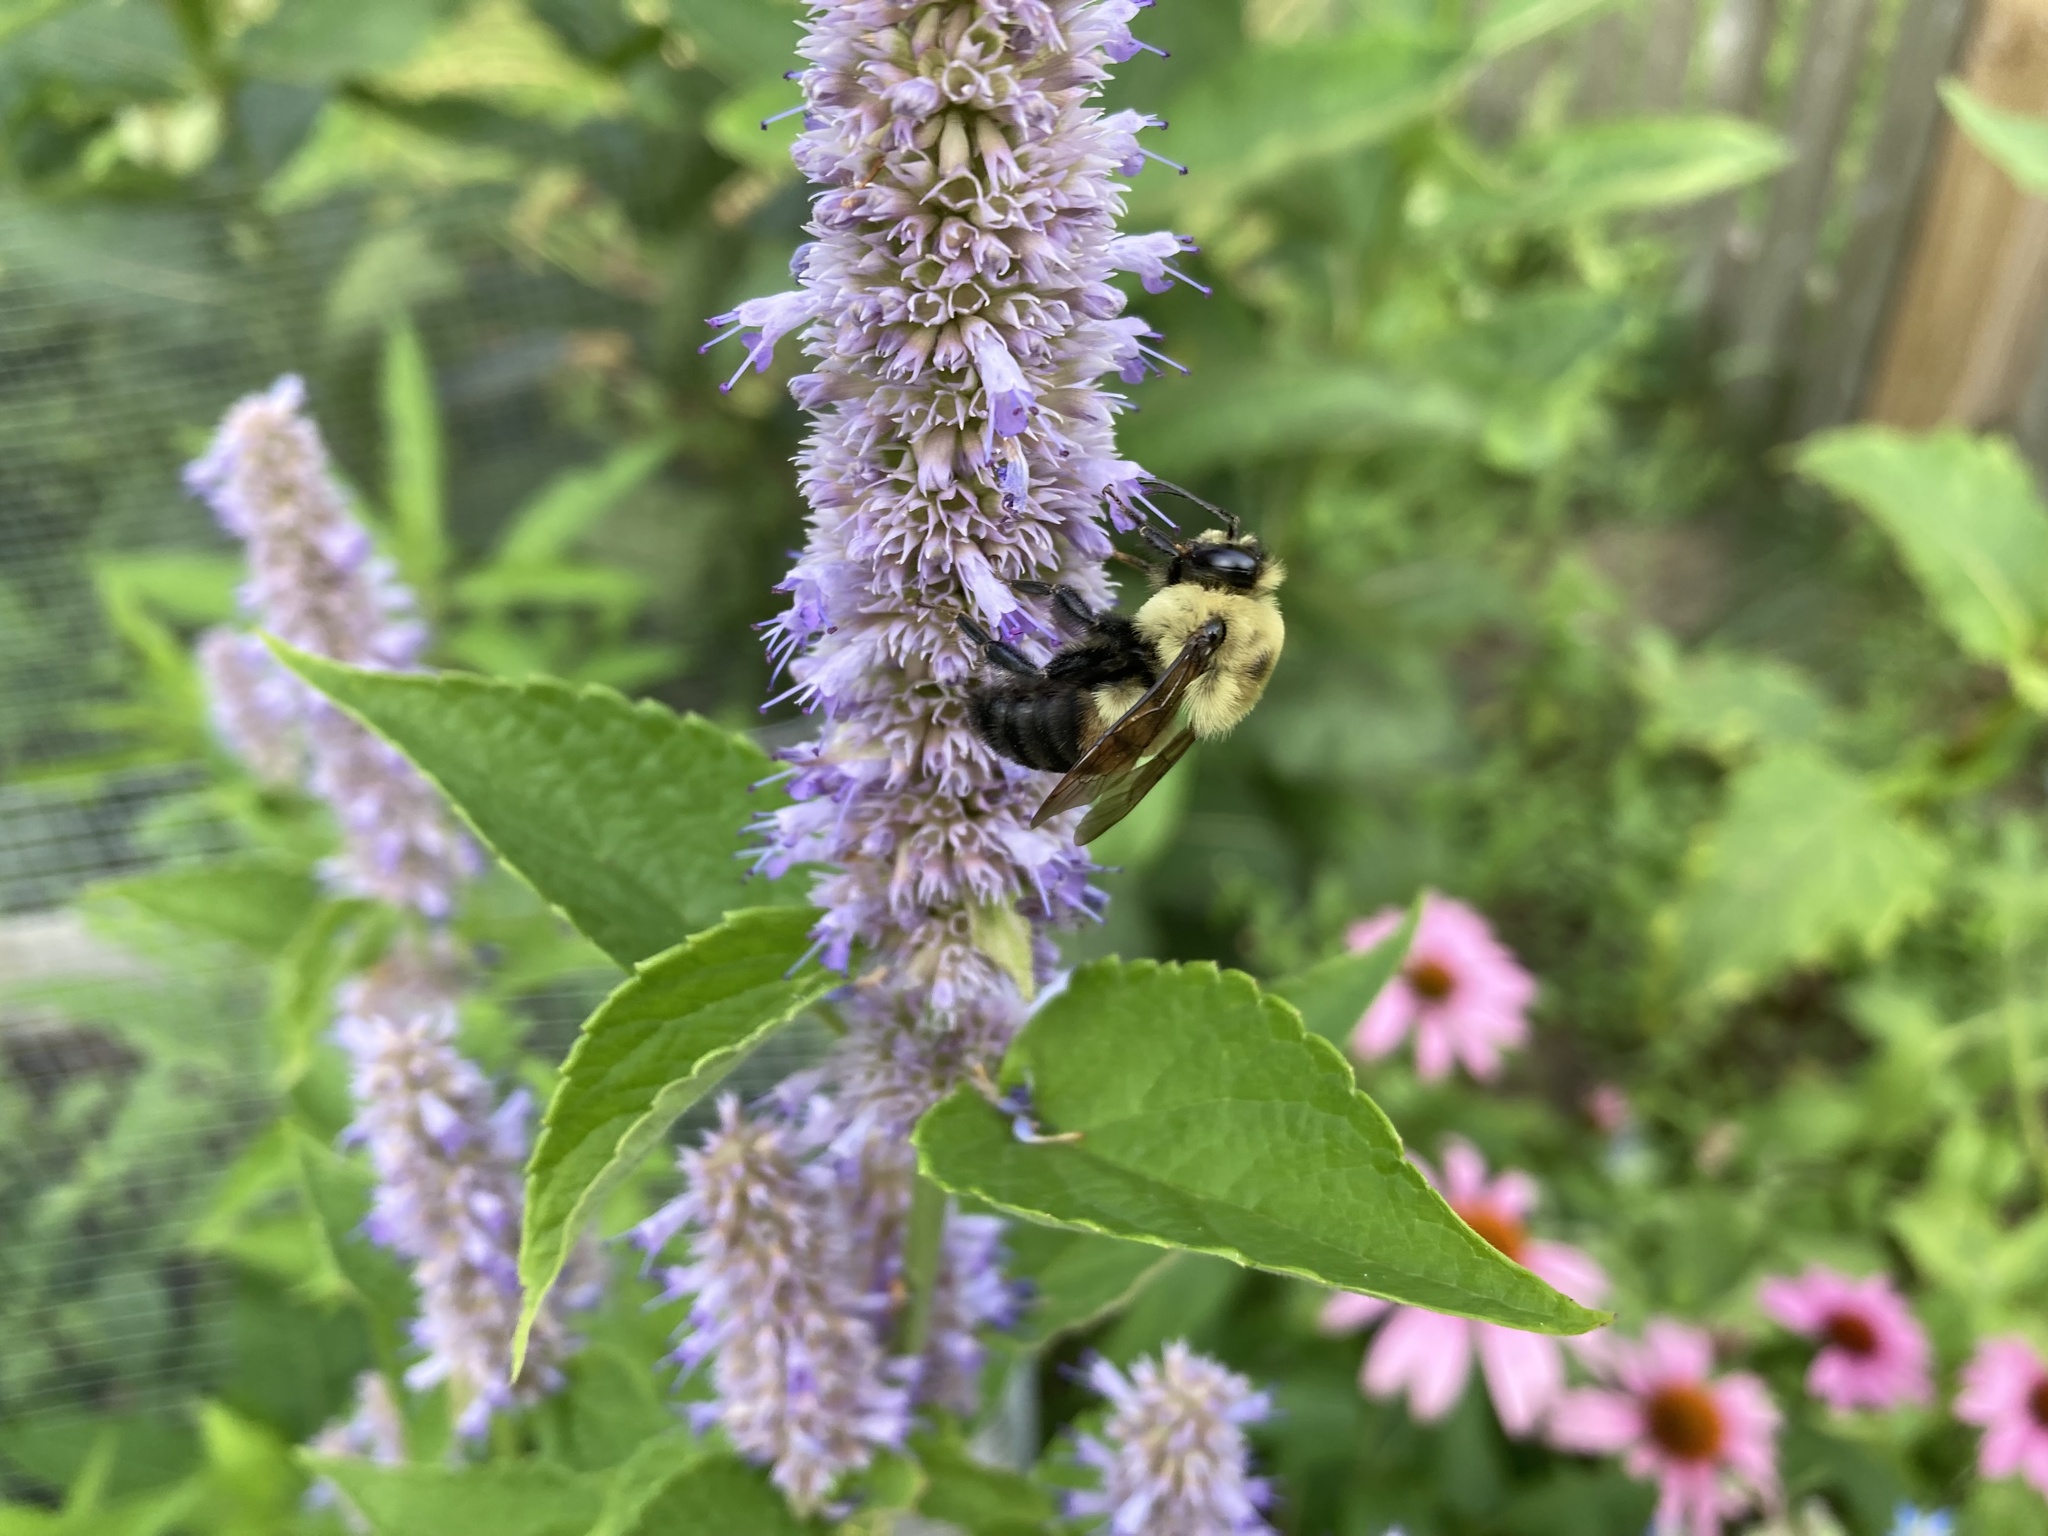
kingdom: Animalia
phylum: Arthropoda
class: Insecta
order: Hymenoptera
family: Apidae
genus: Bombus
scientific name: Bombus griseocollis
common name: Brown-belted bumble bee
